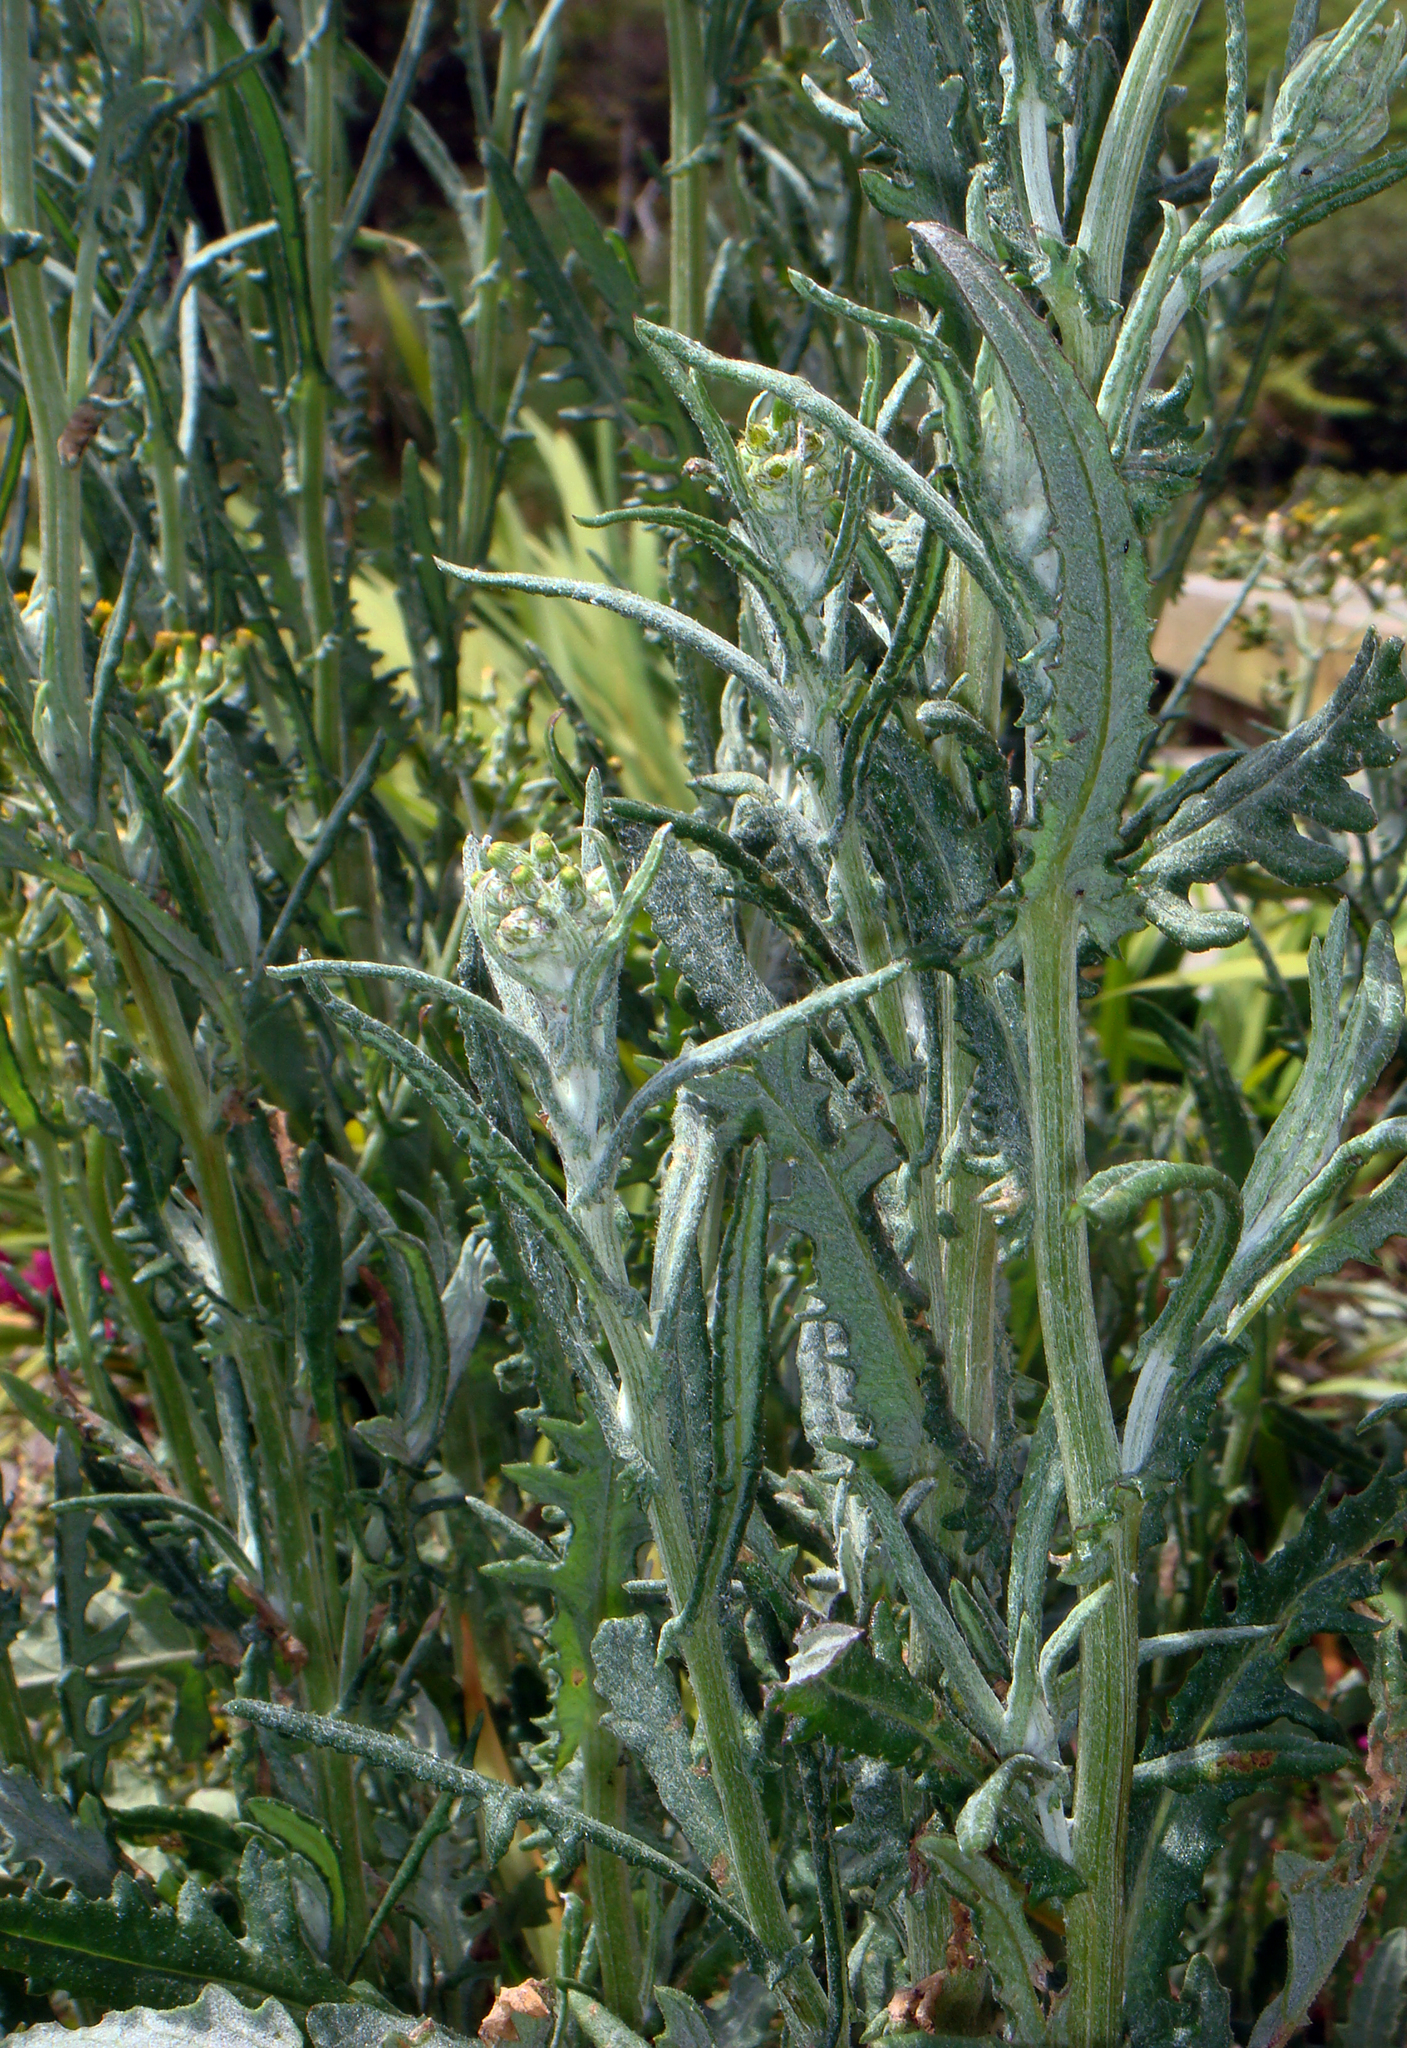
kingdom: Plantae
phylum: Tracheophyta
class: Magnoliopsida
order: Asterales
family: Asteraceae
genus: Senecio
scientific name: Senecio glomeratus
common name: Cutleaf burnweed
